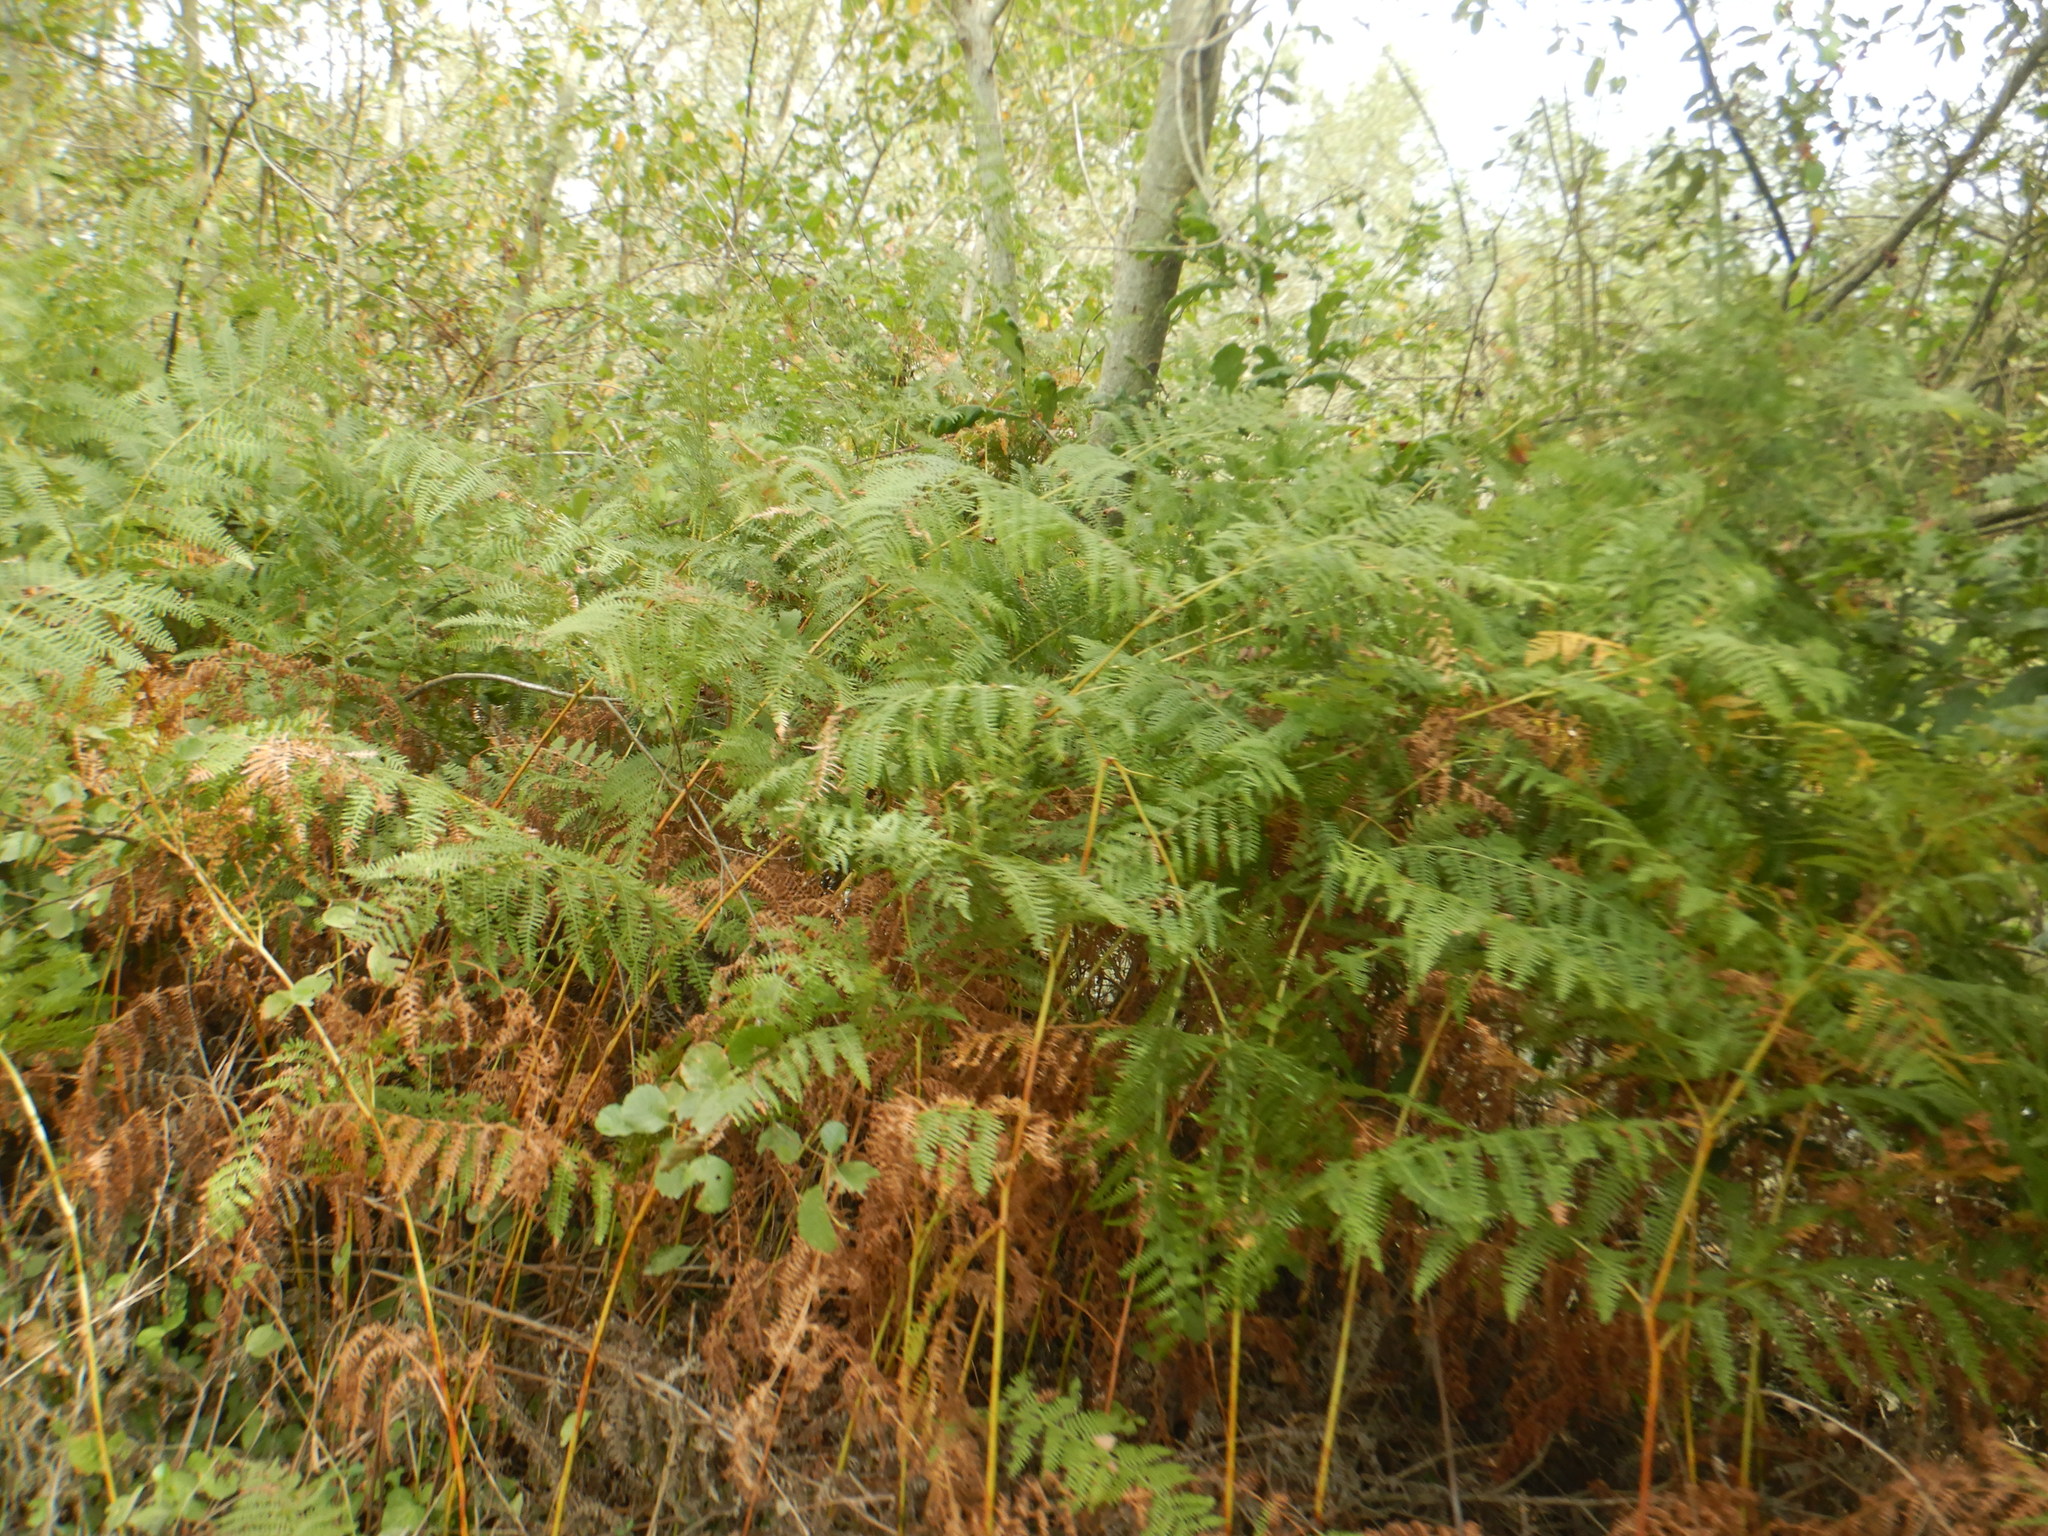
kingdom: Plantae
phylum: Tracheophyta
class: Polypodiopsida
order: Polypodiales
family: Dennstaedtiaceae
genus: Pteridium
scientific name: Pteridium aquilinum
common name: Bracken
